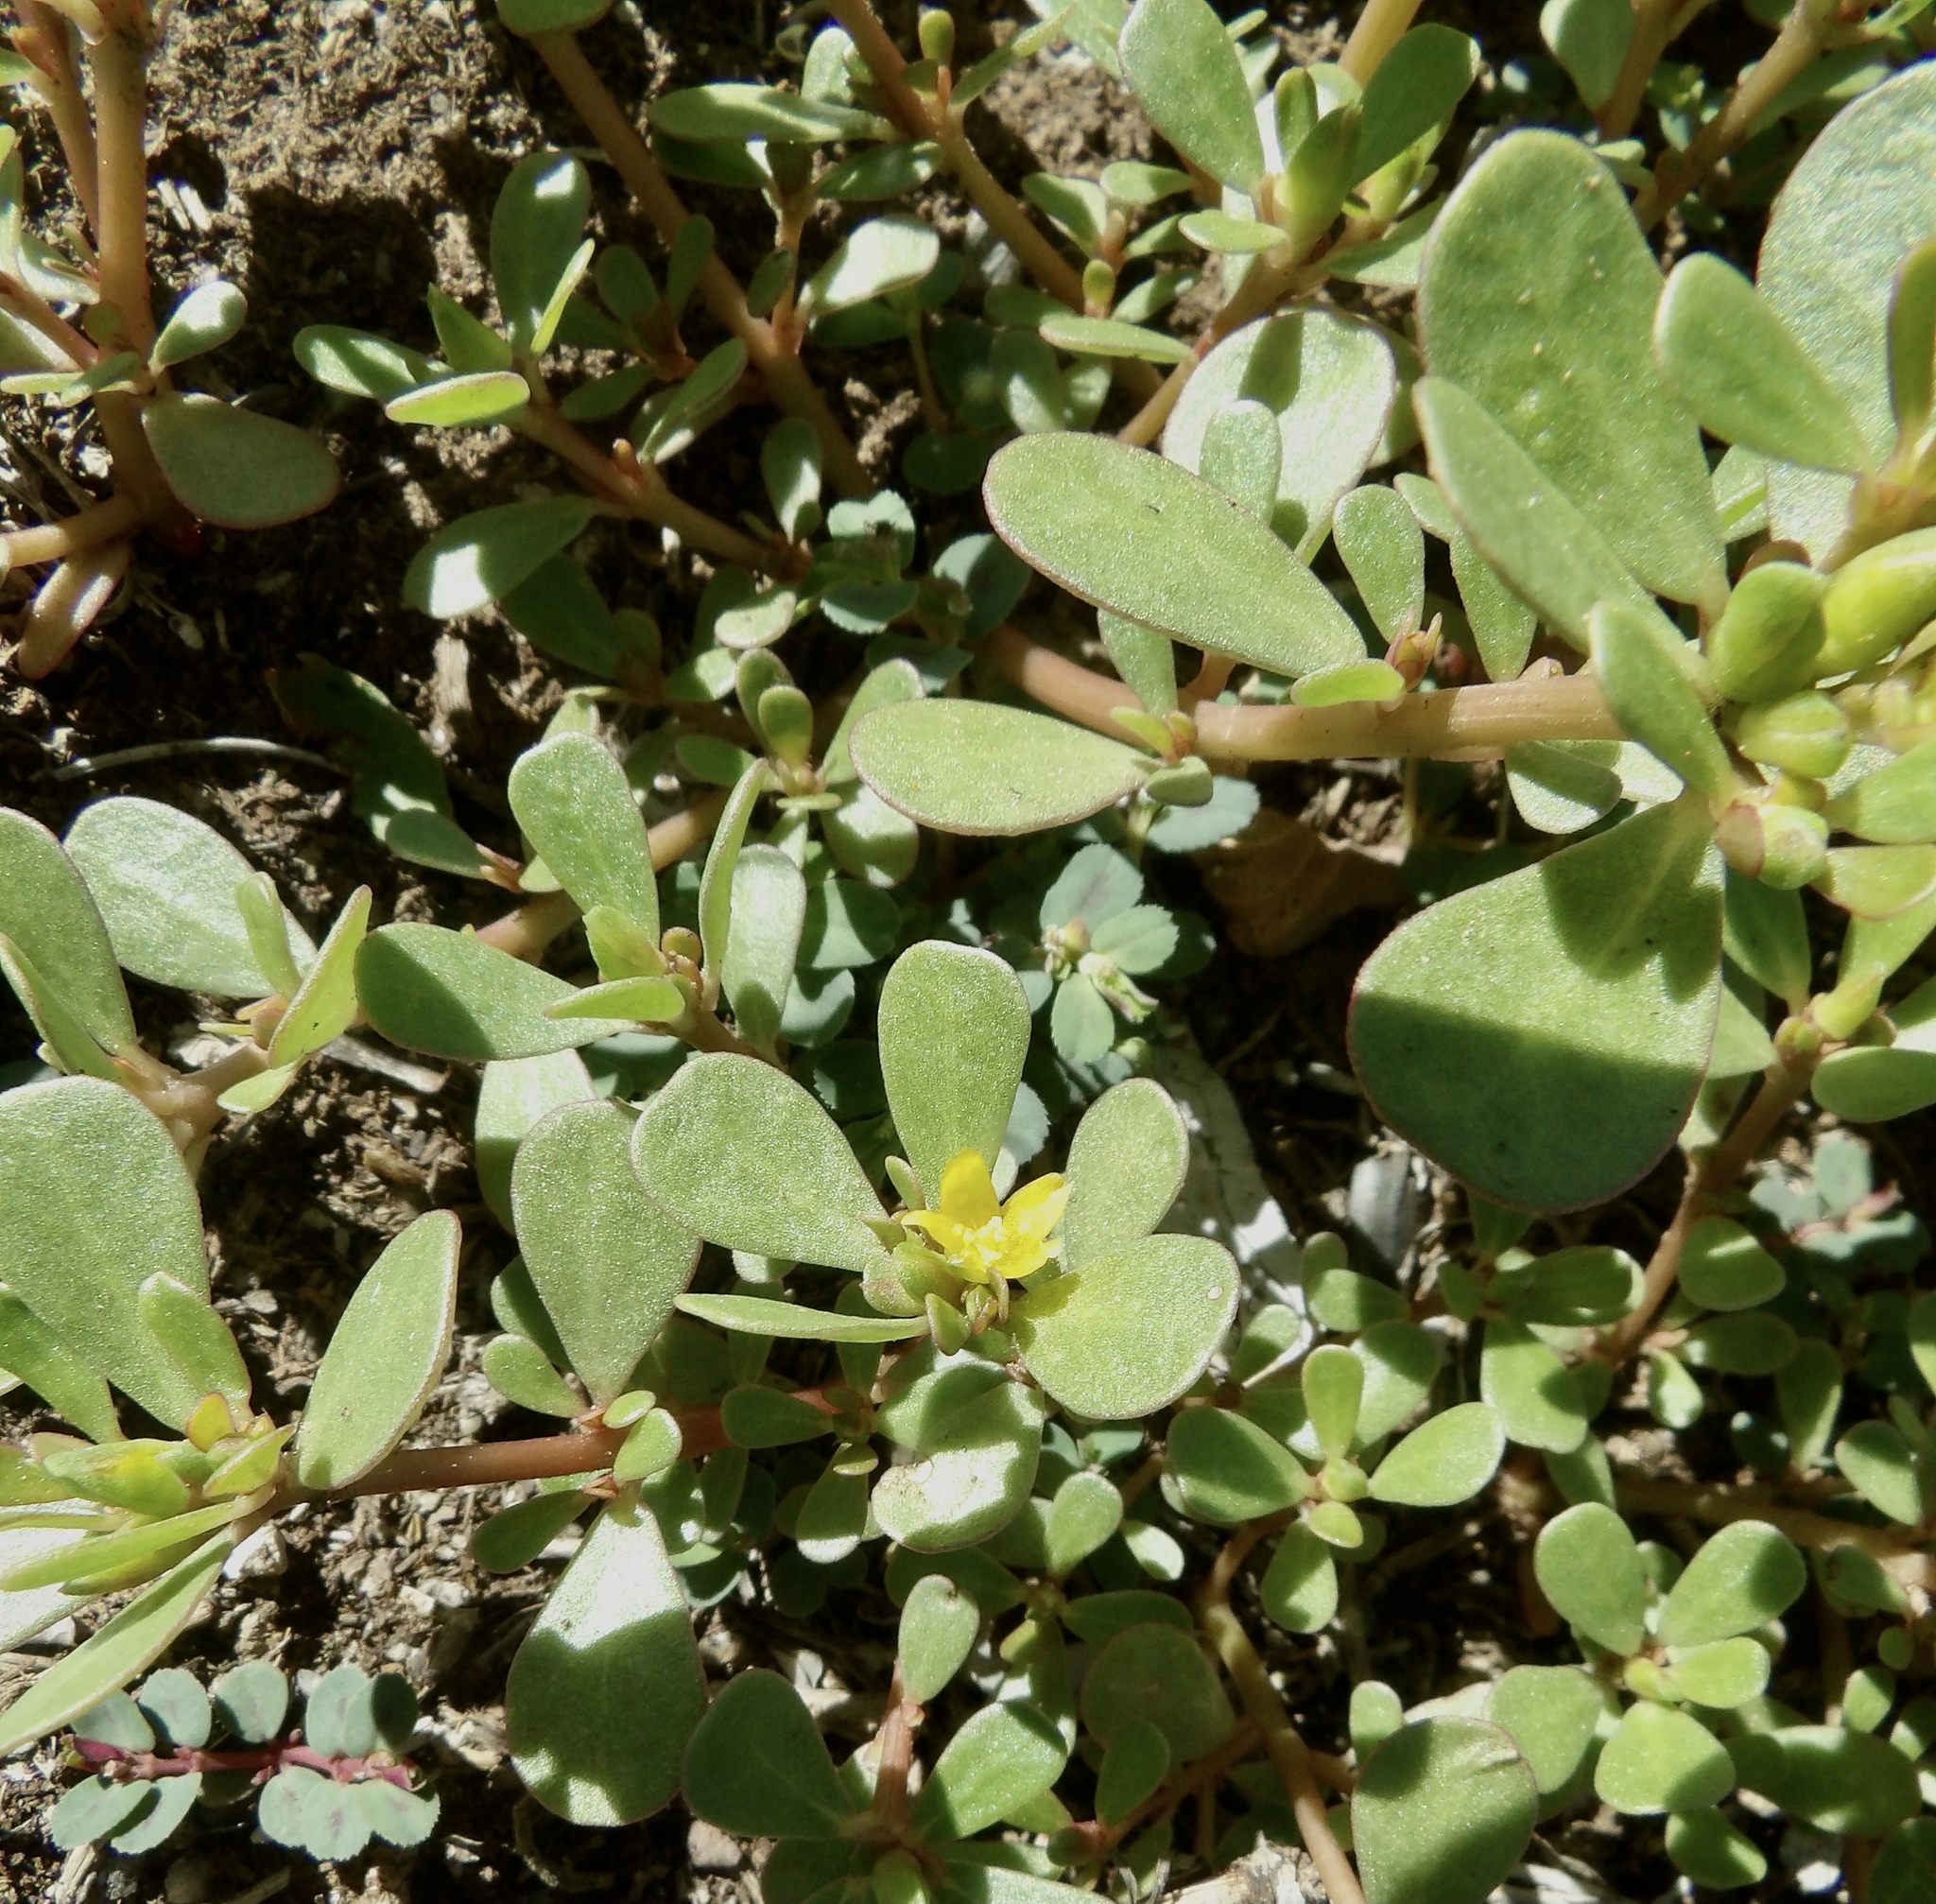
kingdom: Plantae
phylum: Tracheophyta
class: Magnoliopsida
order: Caryophyllales
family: Portulacaceae
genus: Portulaca
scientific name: Portulaca oleracea
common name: Common purslane
